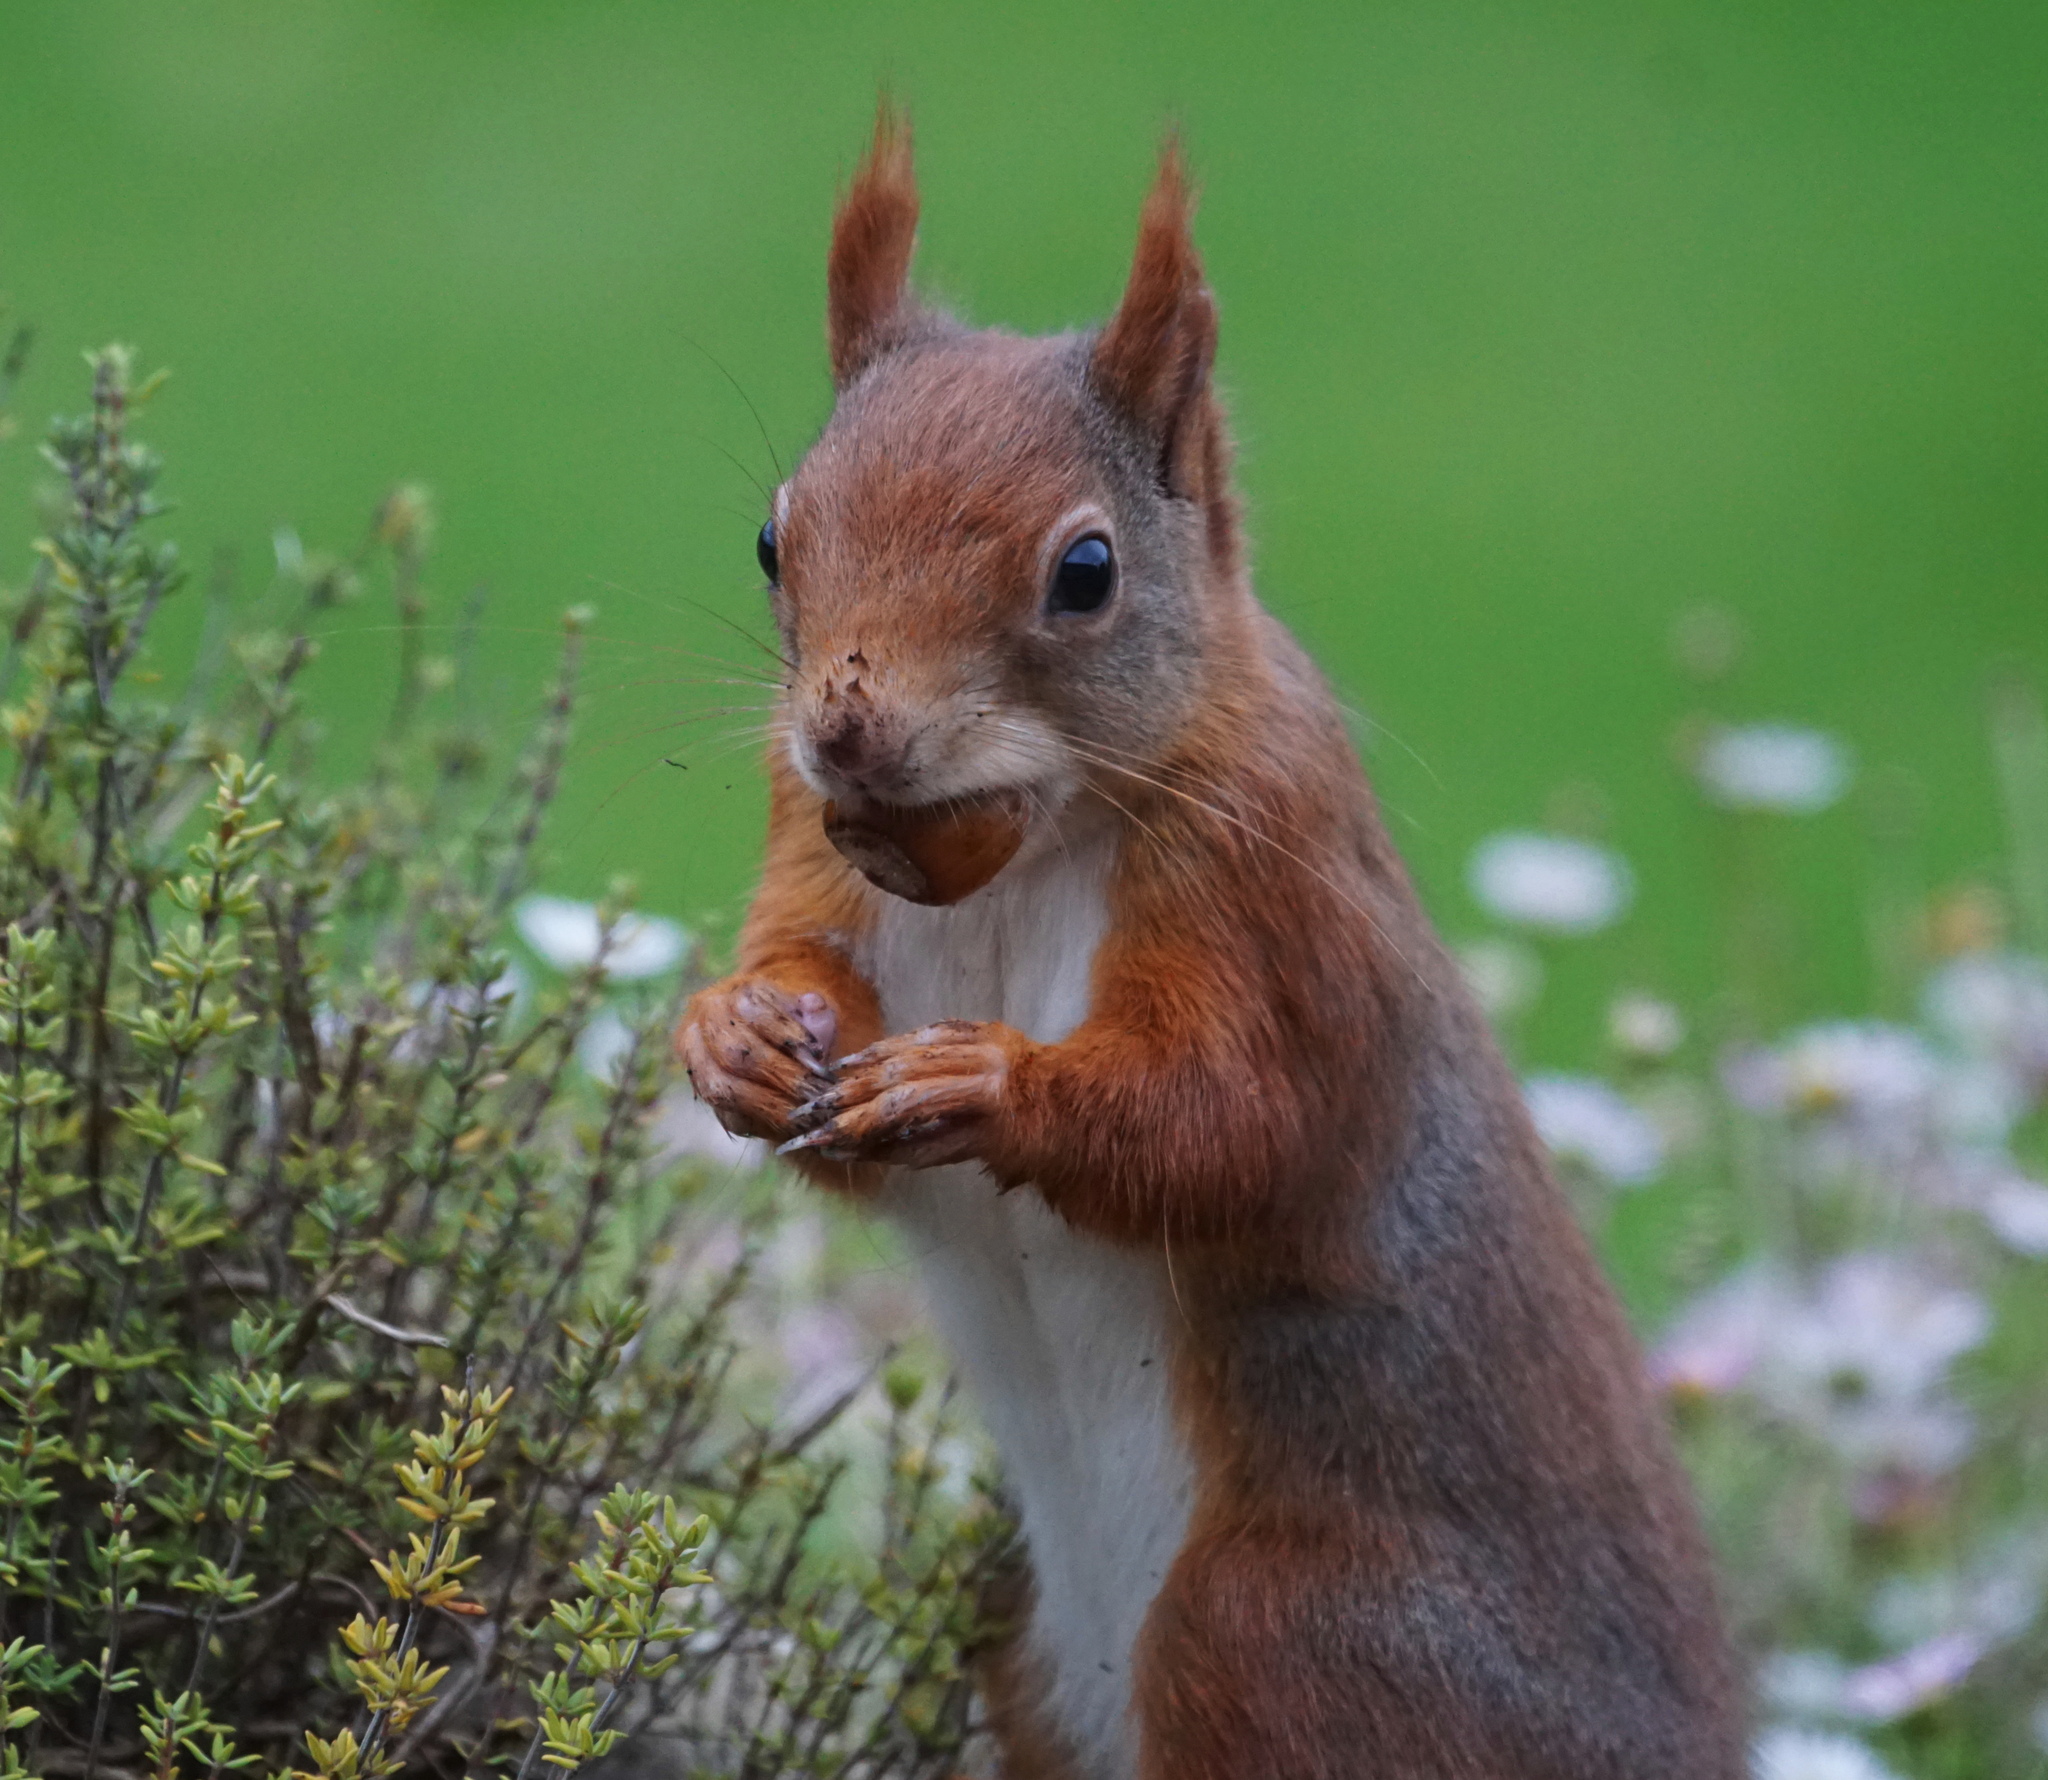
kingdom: Animalia
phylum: Chordata
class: Mammalia
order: Rodentia
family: Sciuridae
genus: Sciurus
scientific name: Sciurus vulgaris
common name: Eurasian red squirrel
